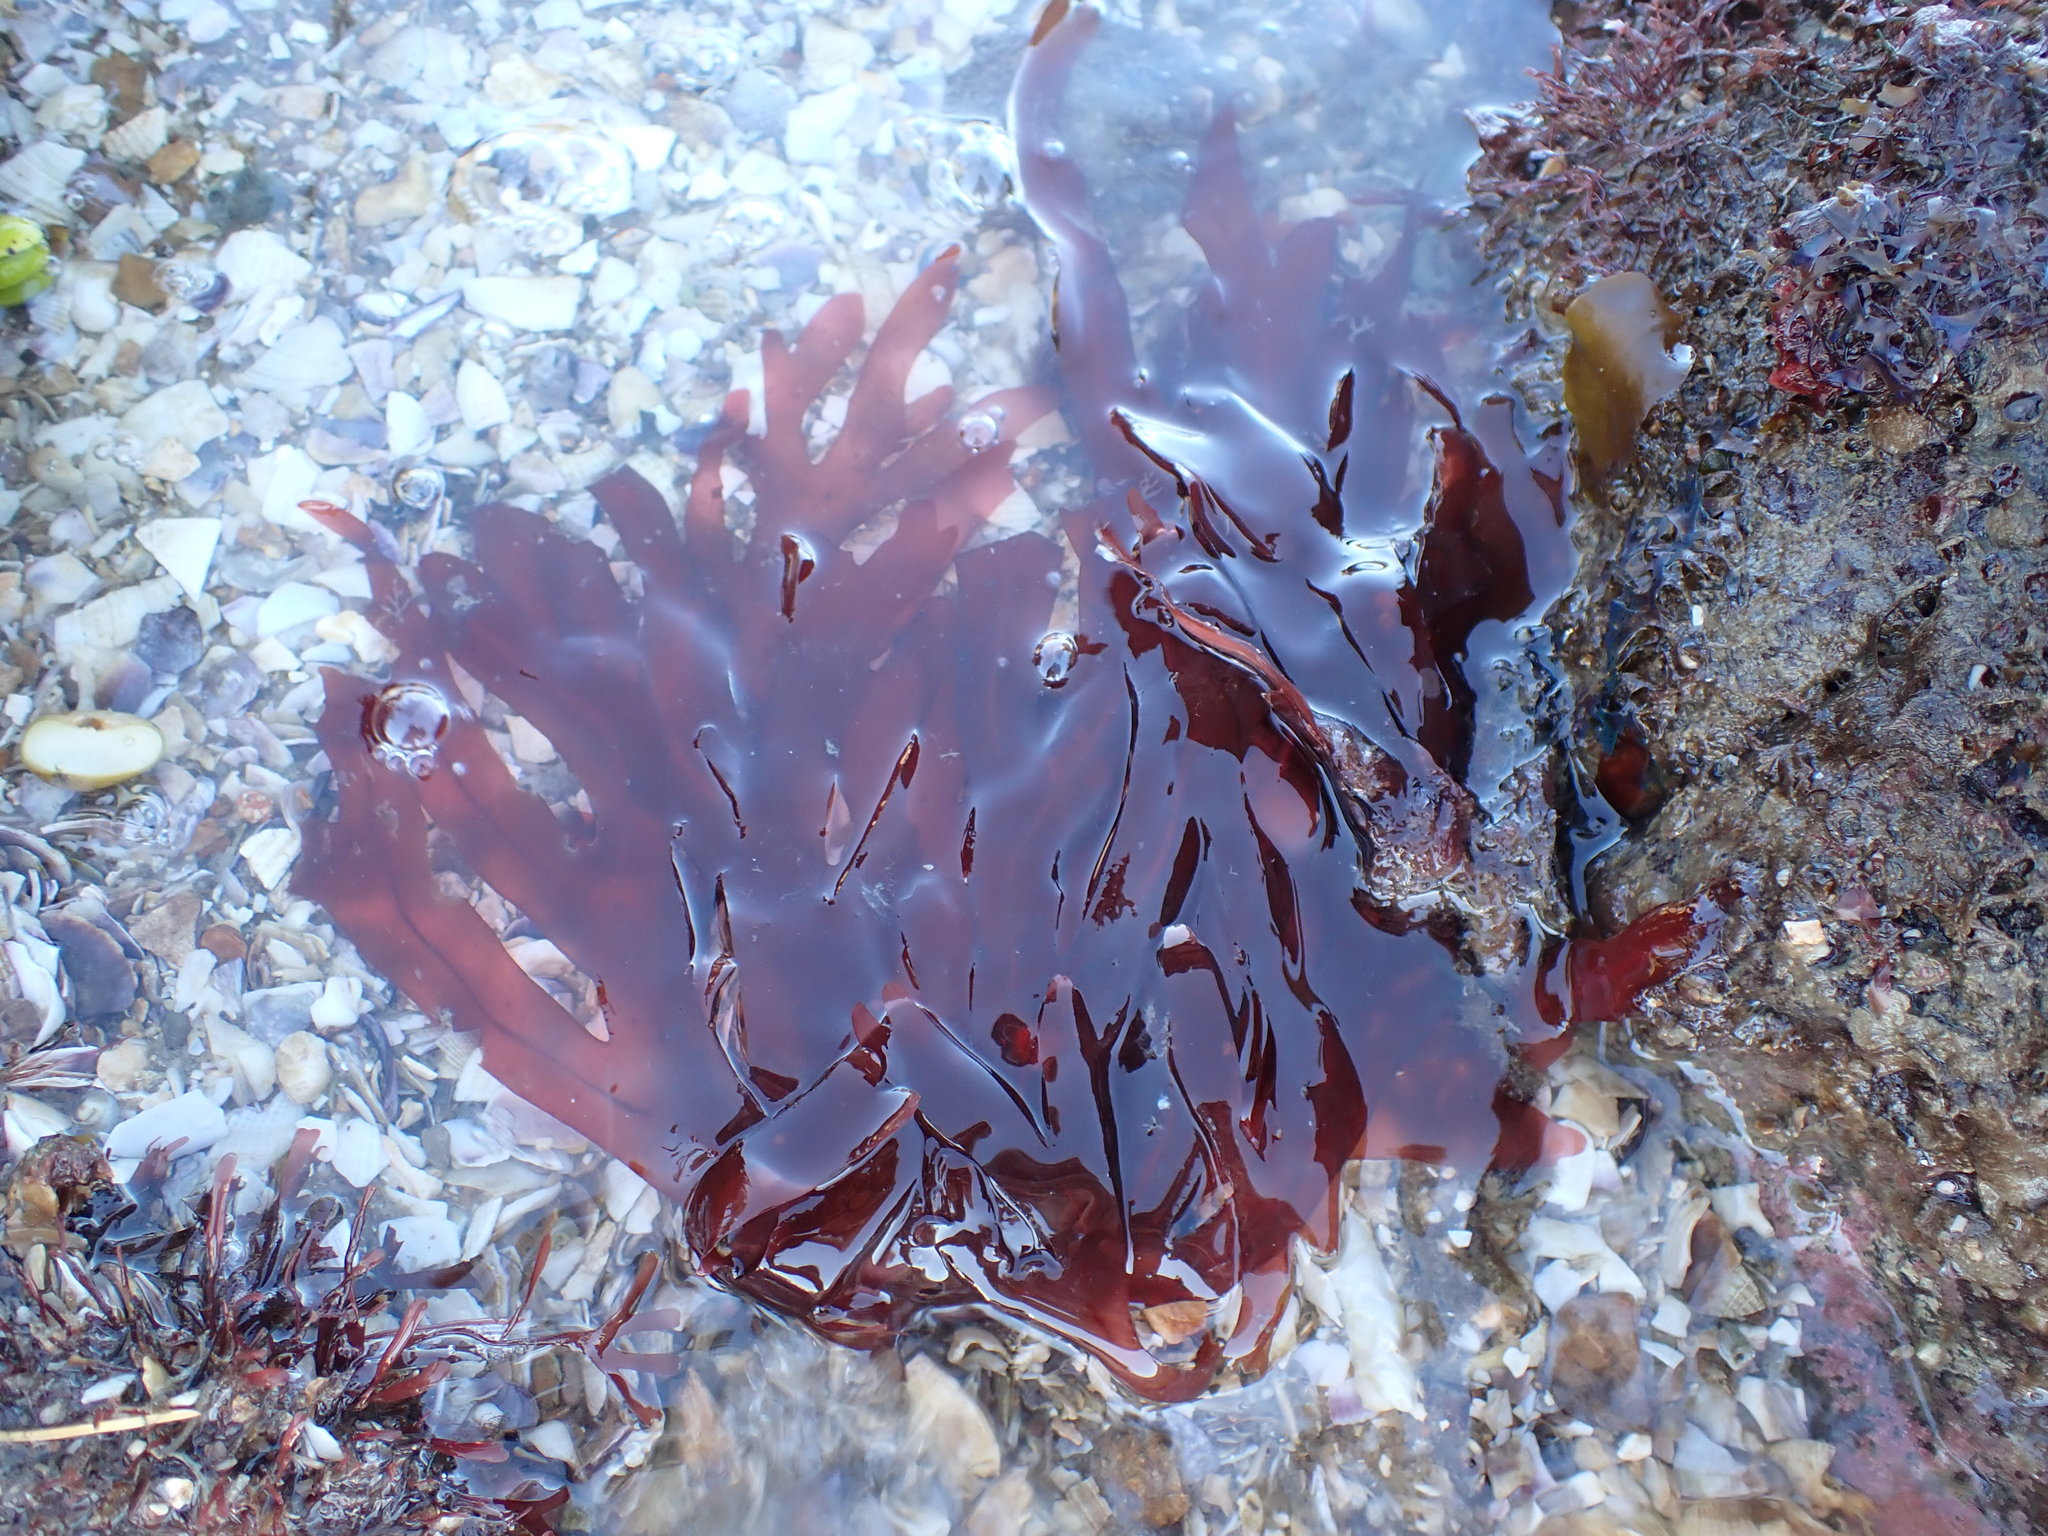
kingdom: Plantae
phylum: Rhodophyta
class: Florideophyceae
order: Gigartinales
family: Phyllophoraceae
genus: Stenogramma
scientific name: Stenogramma interruptum
